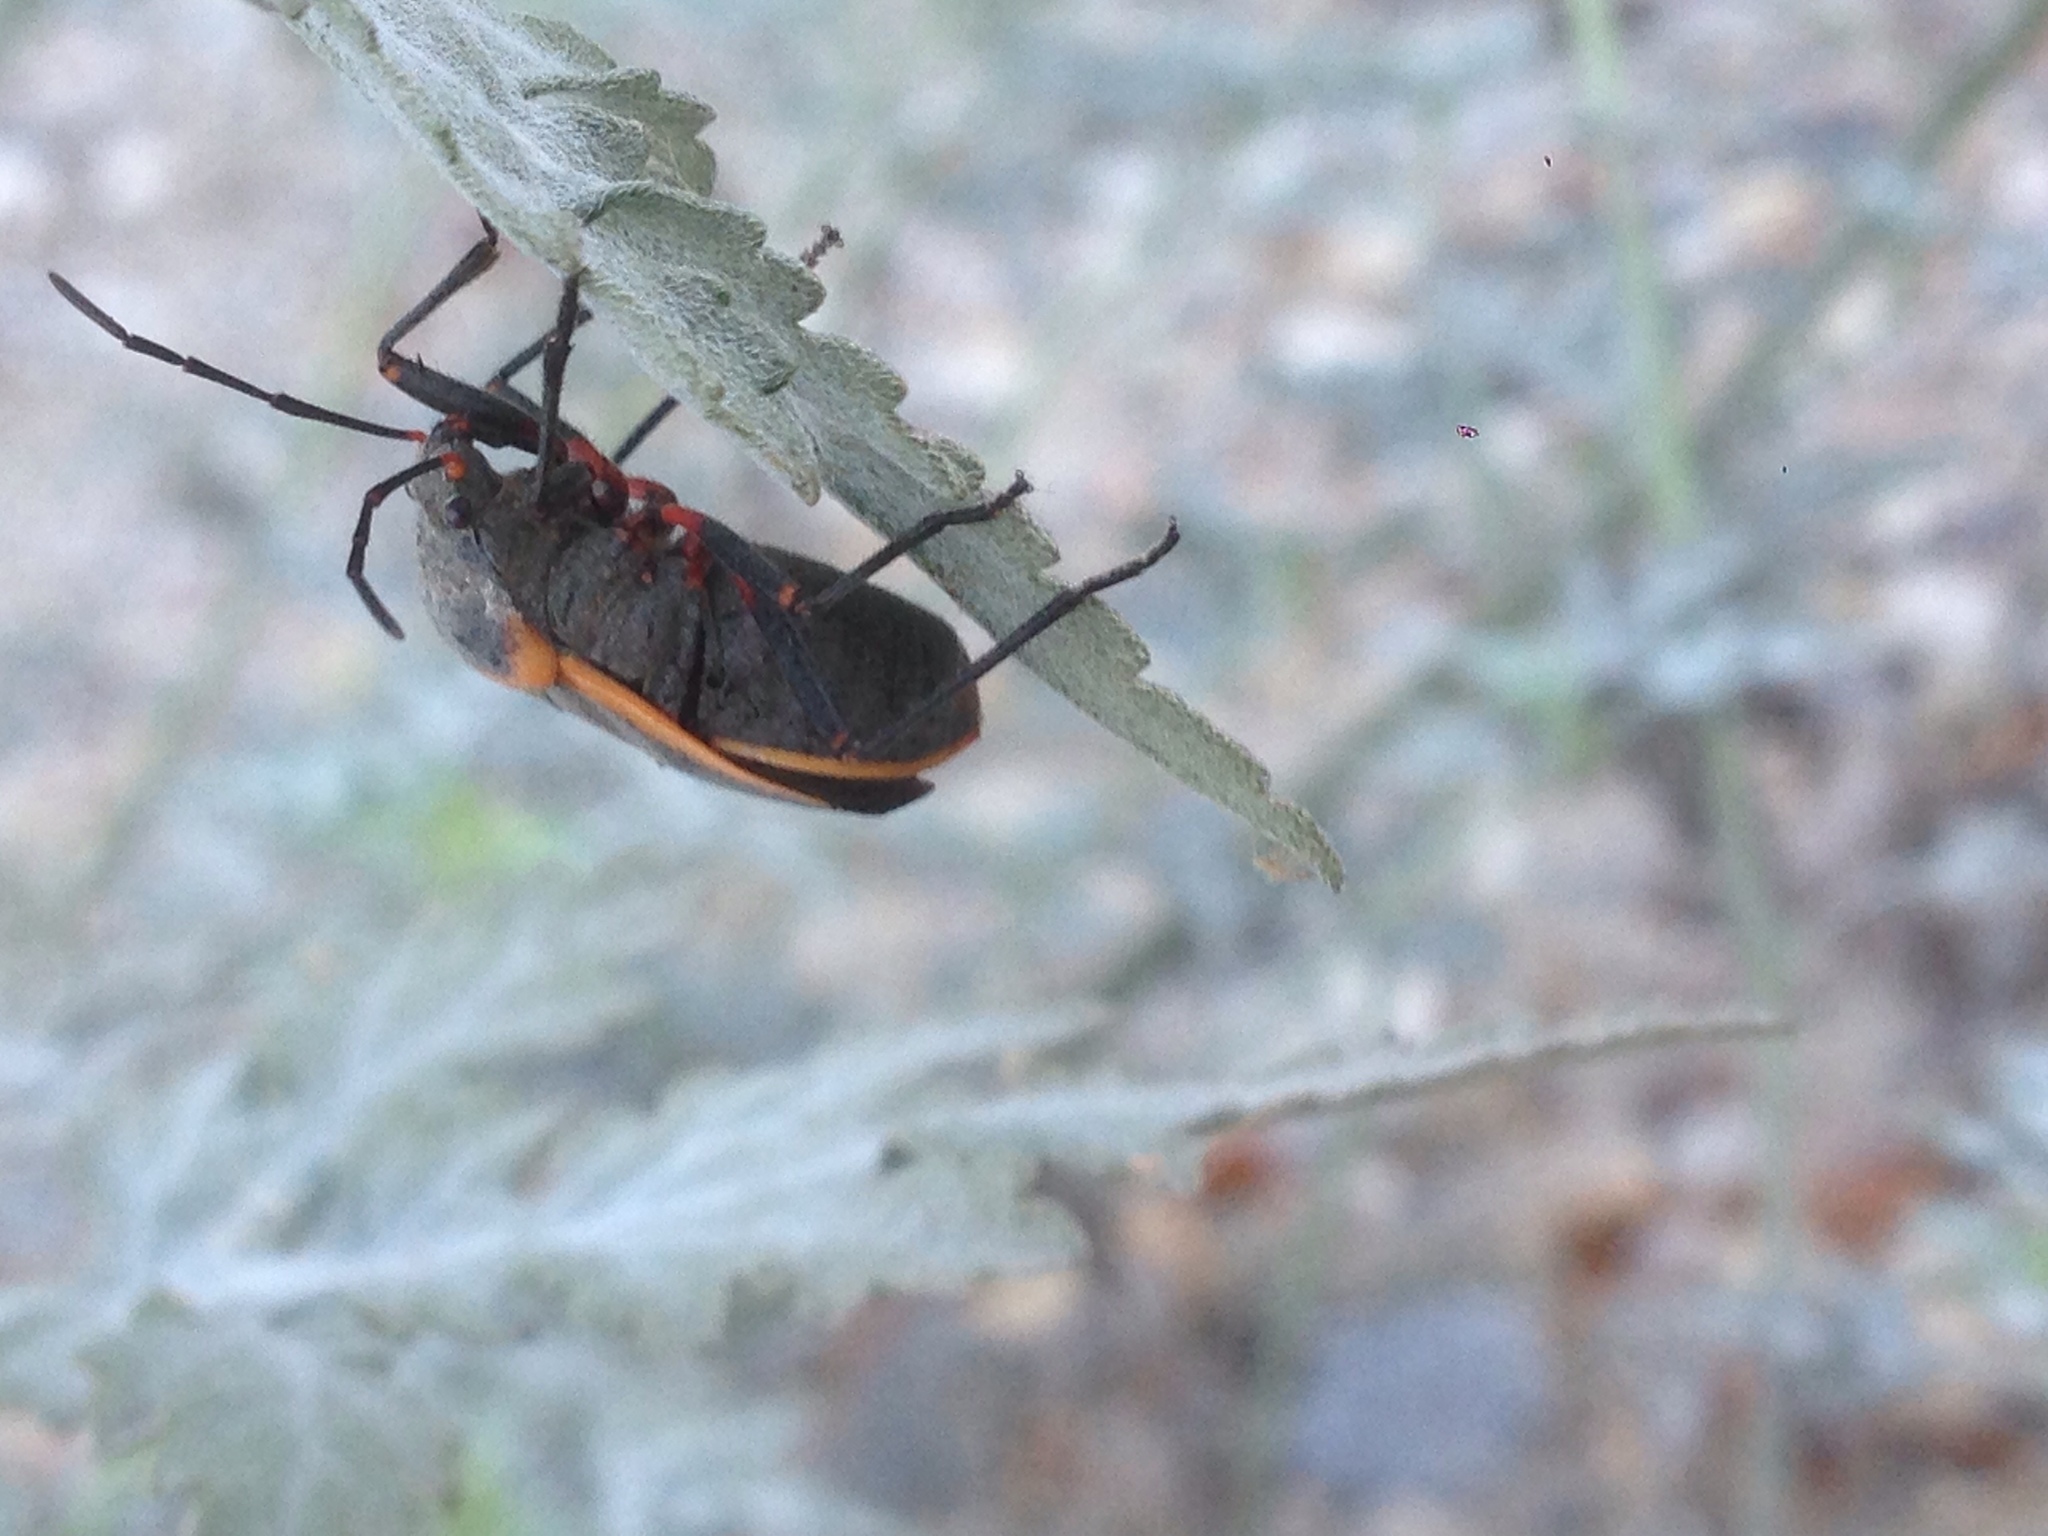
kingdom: Animalia
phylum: Arthropoda
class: Insecta
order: Hemiptera
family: Largidae
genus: Largus
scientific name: Largus californicus
